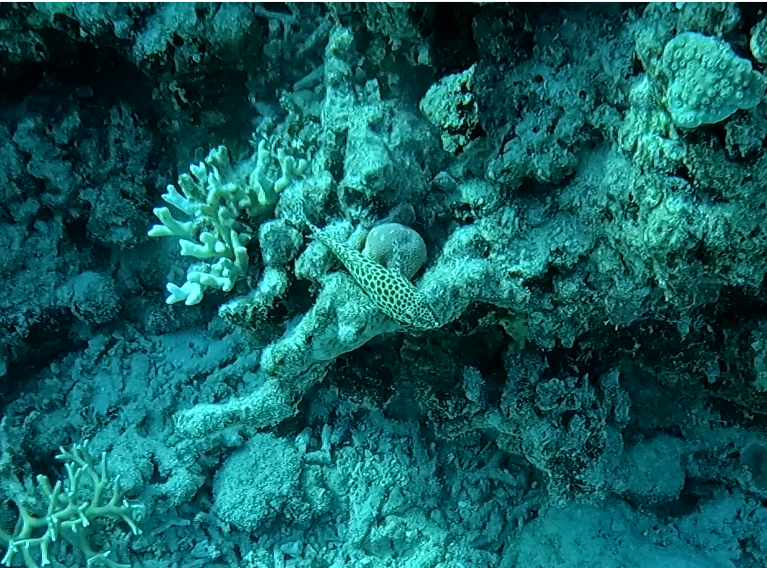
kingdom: Animalia
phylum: Chordata
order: Perciformes
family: Serranidae
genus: Epinephelus
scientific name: Epinephelus merra
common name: Honeycomb grouper
